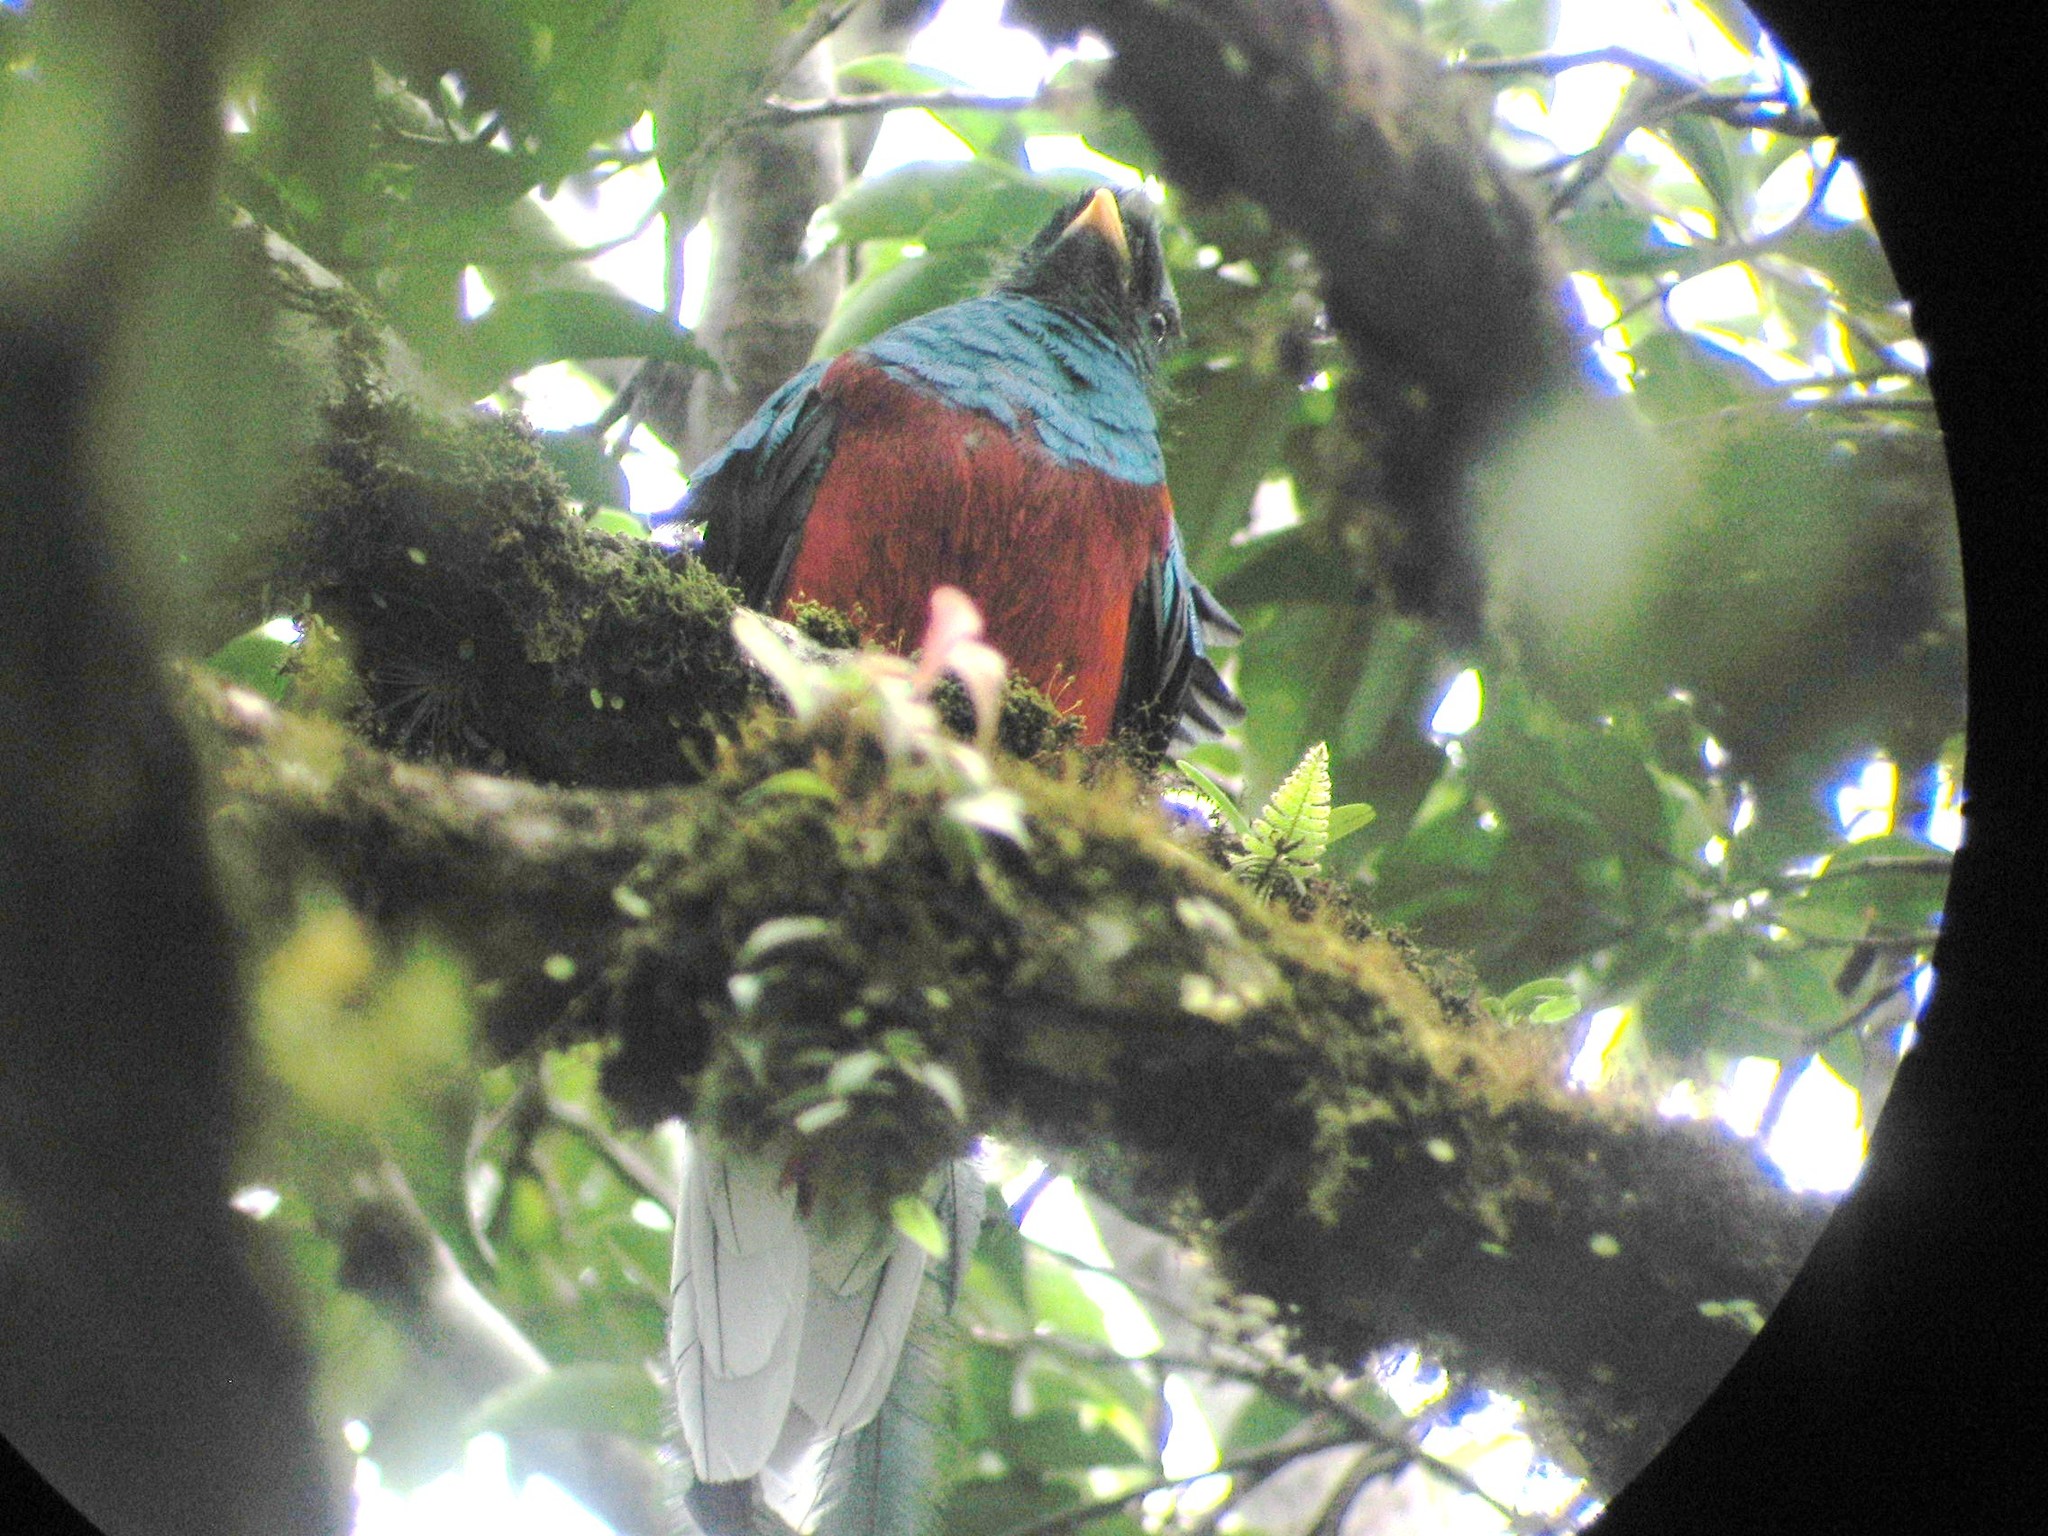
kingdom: Animalia
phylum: Chordata
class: Aves
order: Trogoniformes
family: Trogonidae
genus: Pharomachrus
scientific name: Pharomachrus mocinno
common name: Resplendent quetzal
